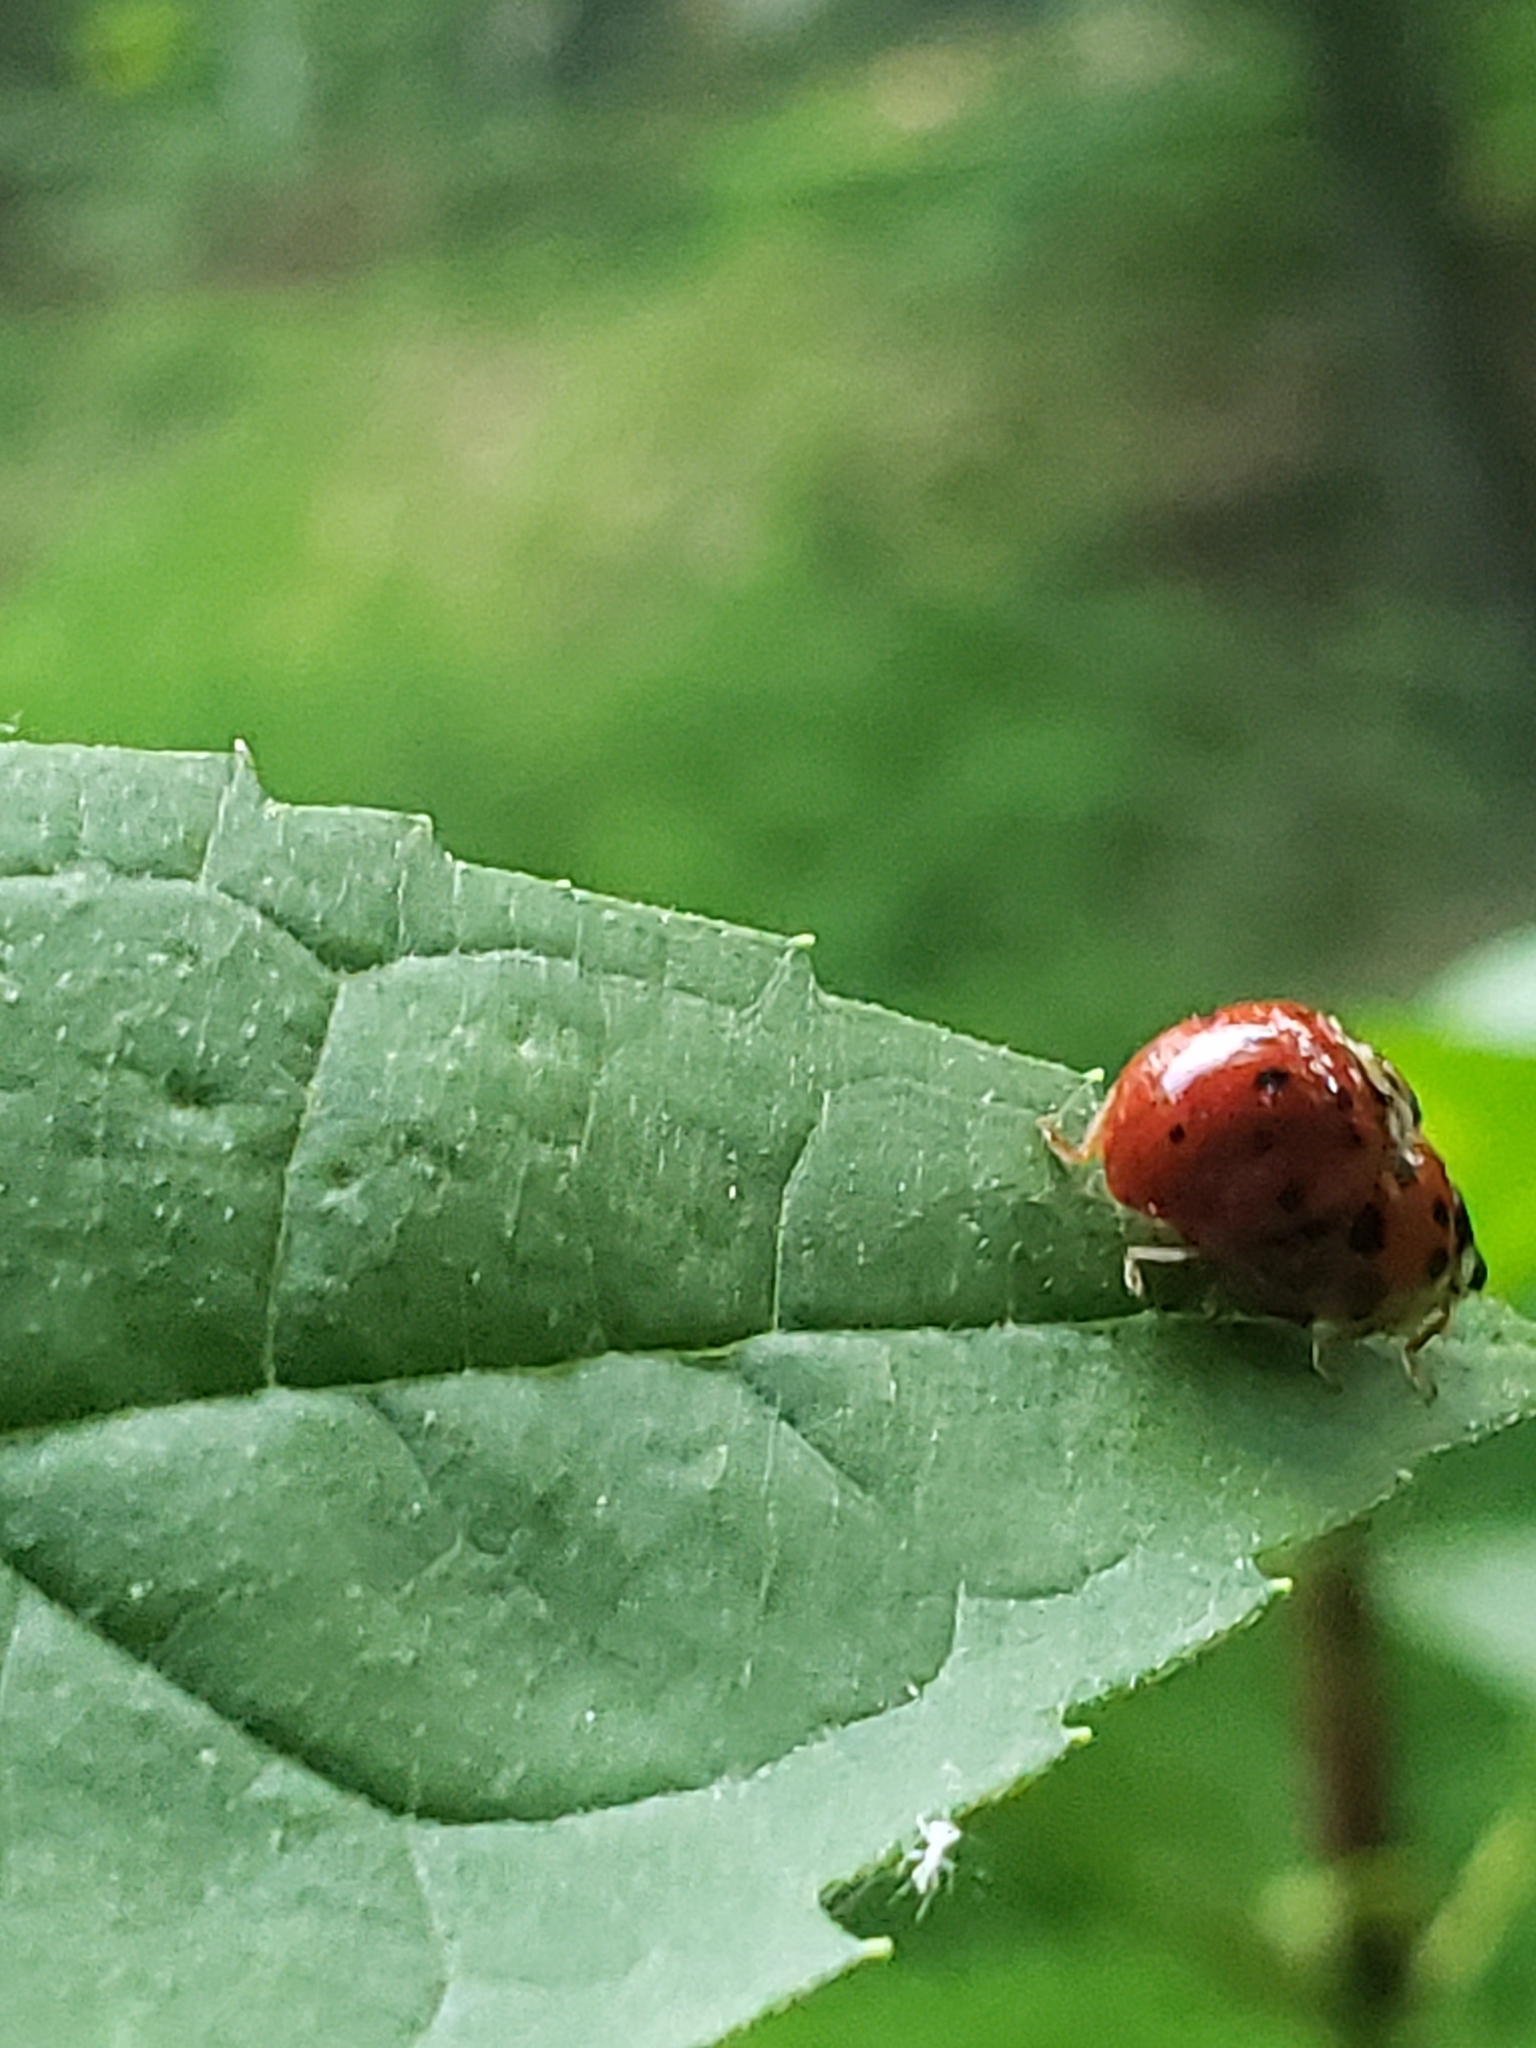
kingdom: Animalia
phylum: Arthropoda
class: Insecta
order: Coleoptera
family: Coccinellidae
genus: Harmonia
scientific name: Harmonia axyridis
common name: Harlequin ladybird
